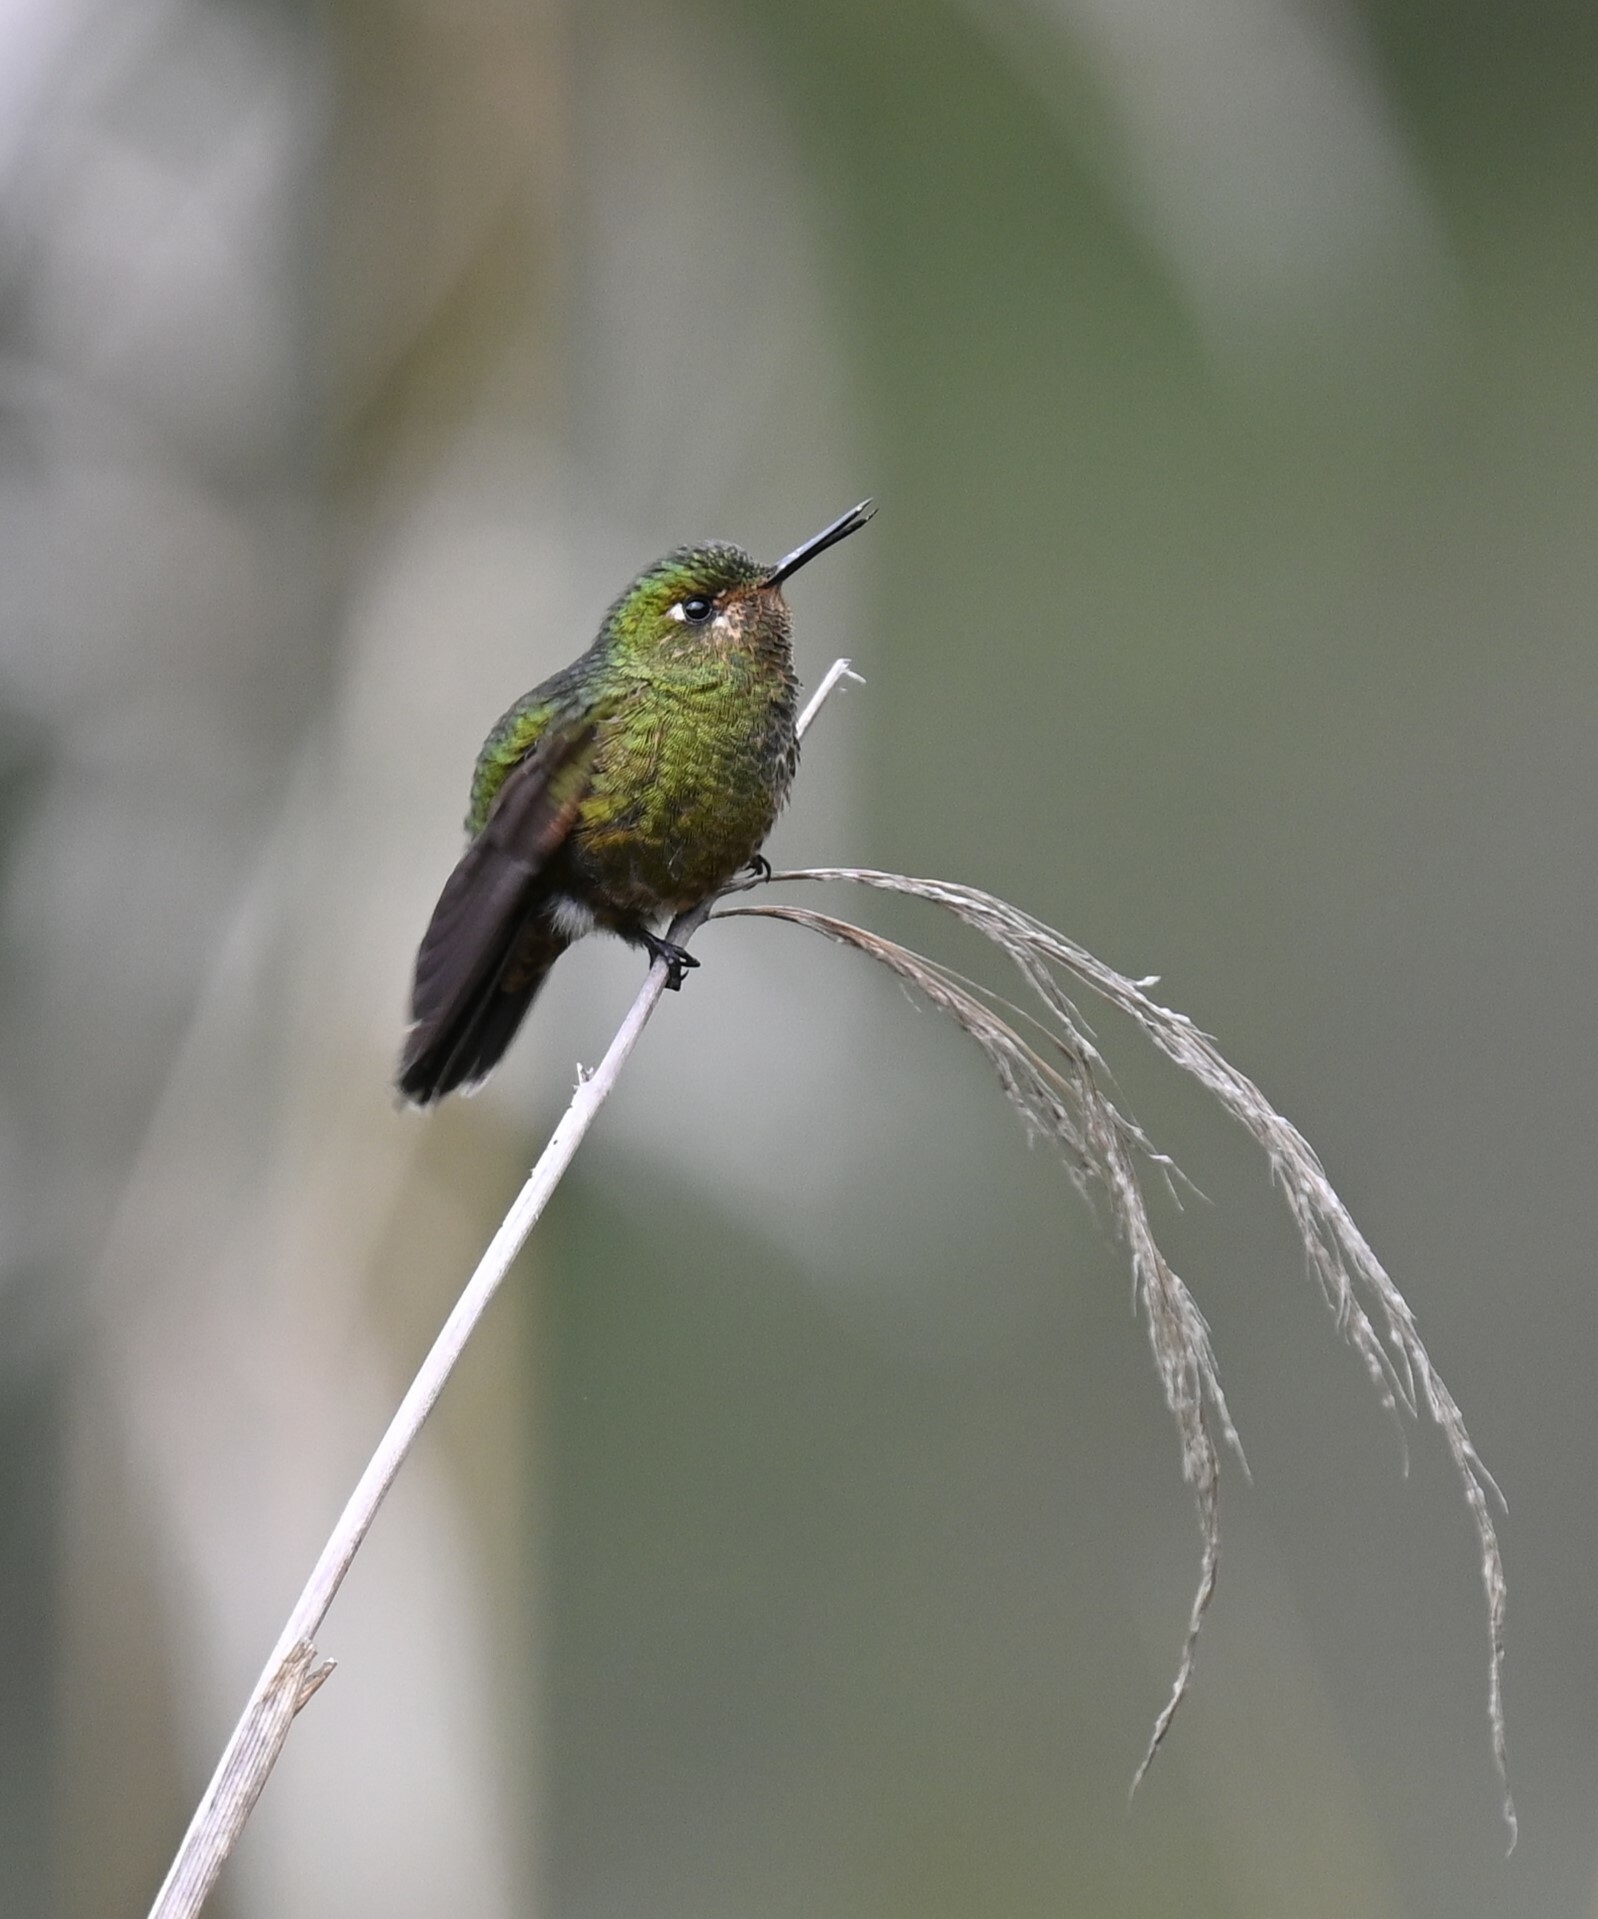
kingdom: Animalia
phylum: Chordata
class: Aves
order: Apodiformes
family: Trochilidae
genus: Metallura
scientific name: Metallura williami
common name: Viridian metaltail
